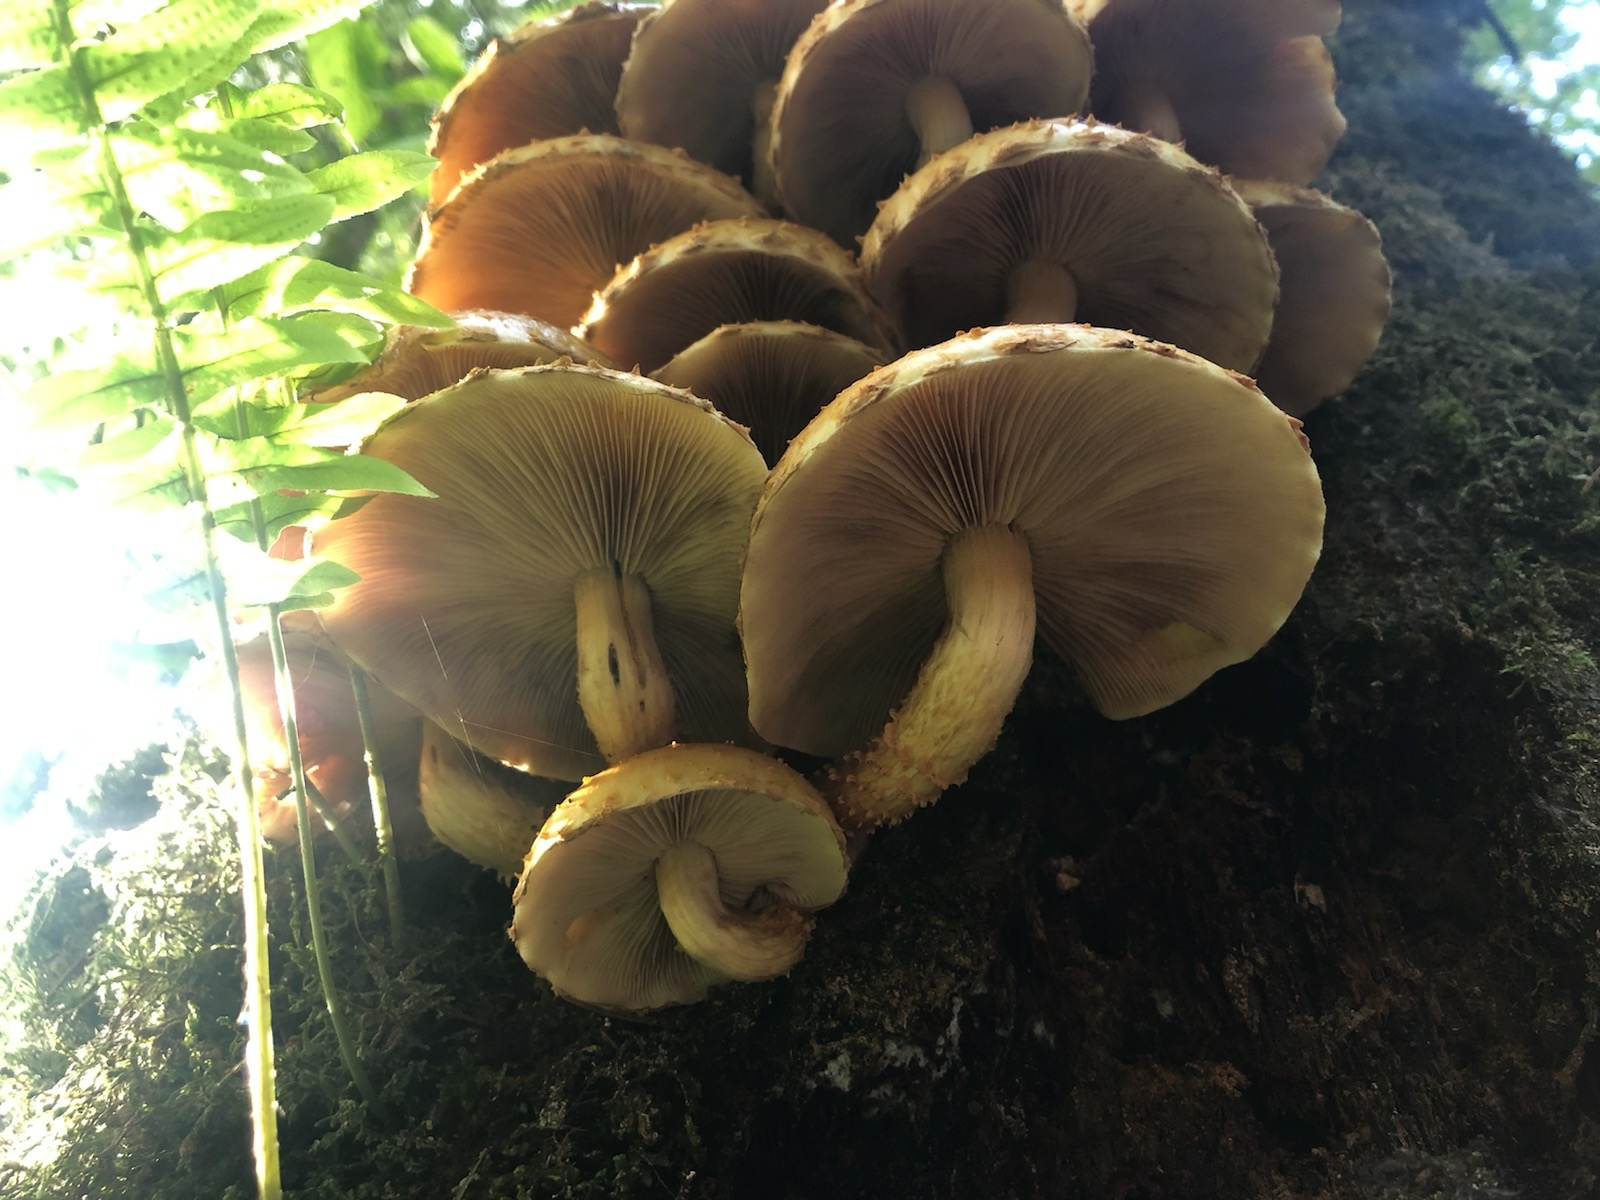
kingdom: Fungi
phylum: Basidiomycota
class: Agaricomycetes
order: Agaricales
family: Strophariaceae
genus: Pholiota
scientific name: Pholiota aurivella
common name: Golden scalycap
